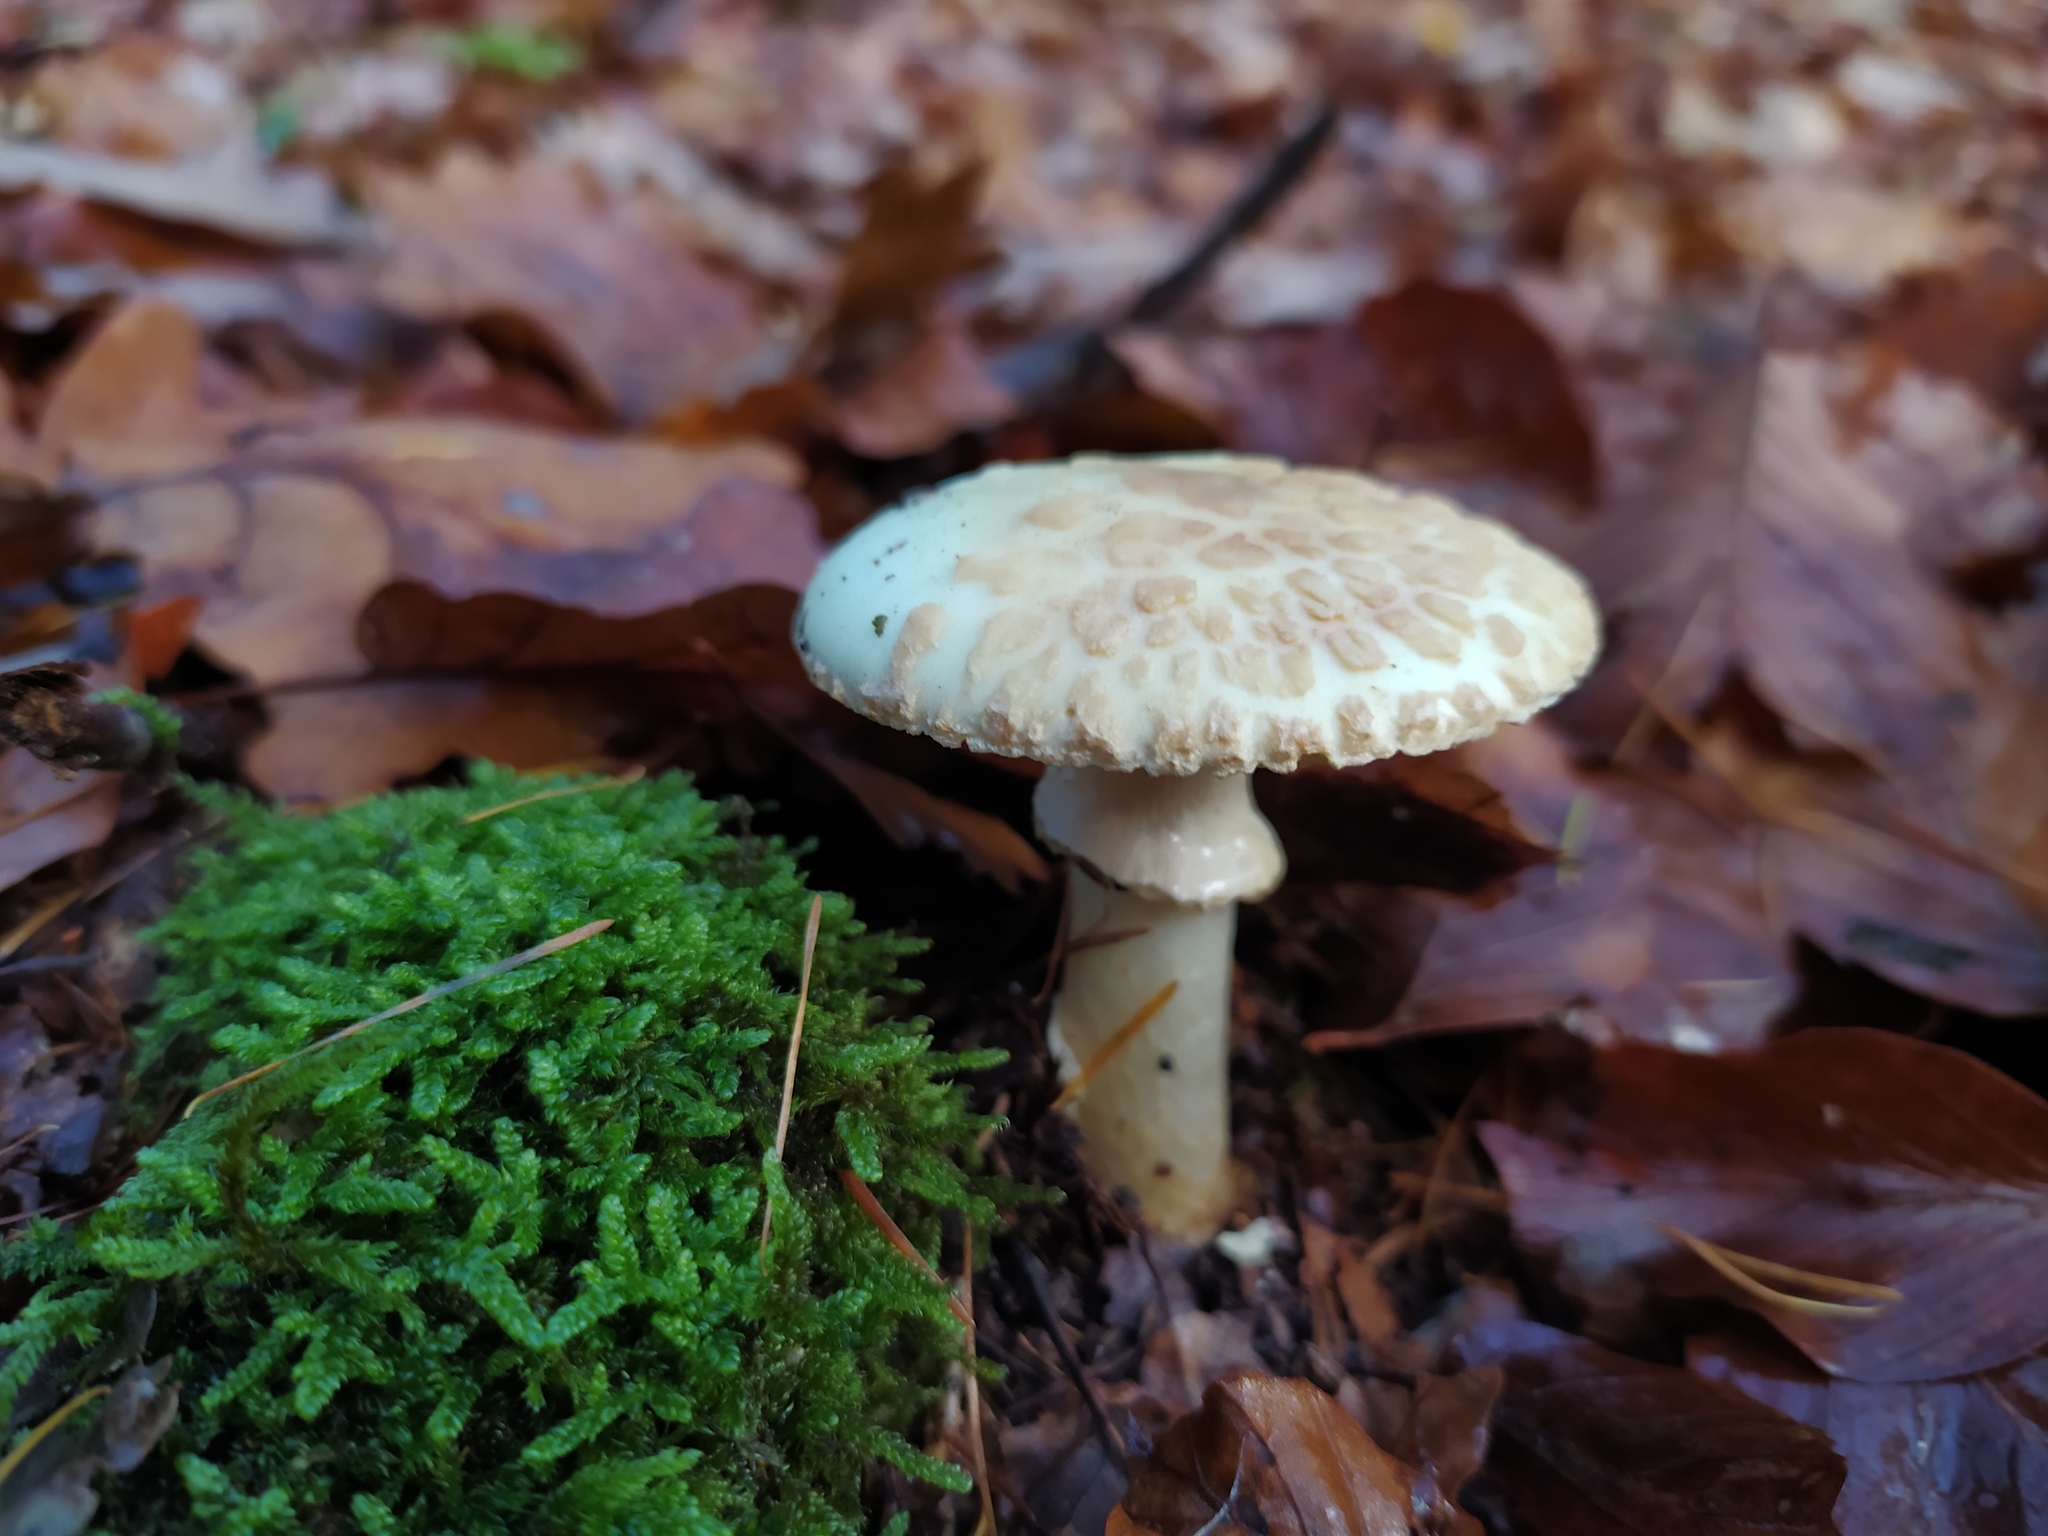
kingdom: Fungi
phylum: Basidiomycota
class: Agaricomycetes
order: Agaricales
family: Amanitaceae
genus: Amanita
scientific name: Amanita citrina
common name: False death-cap
